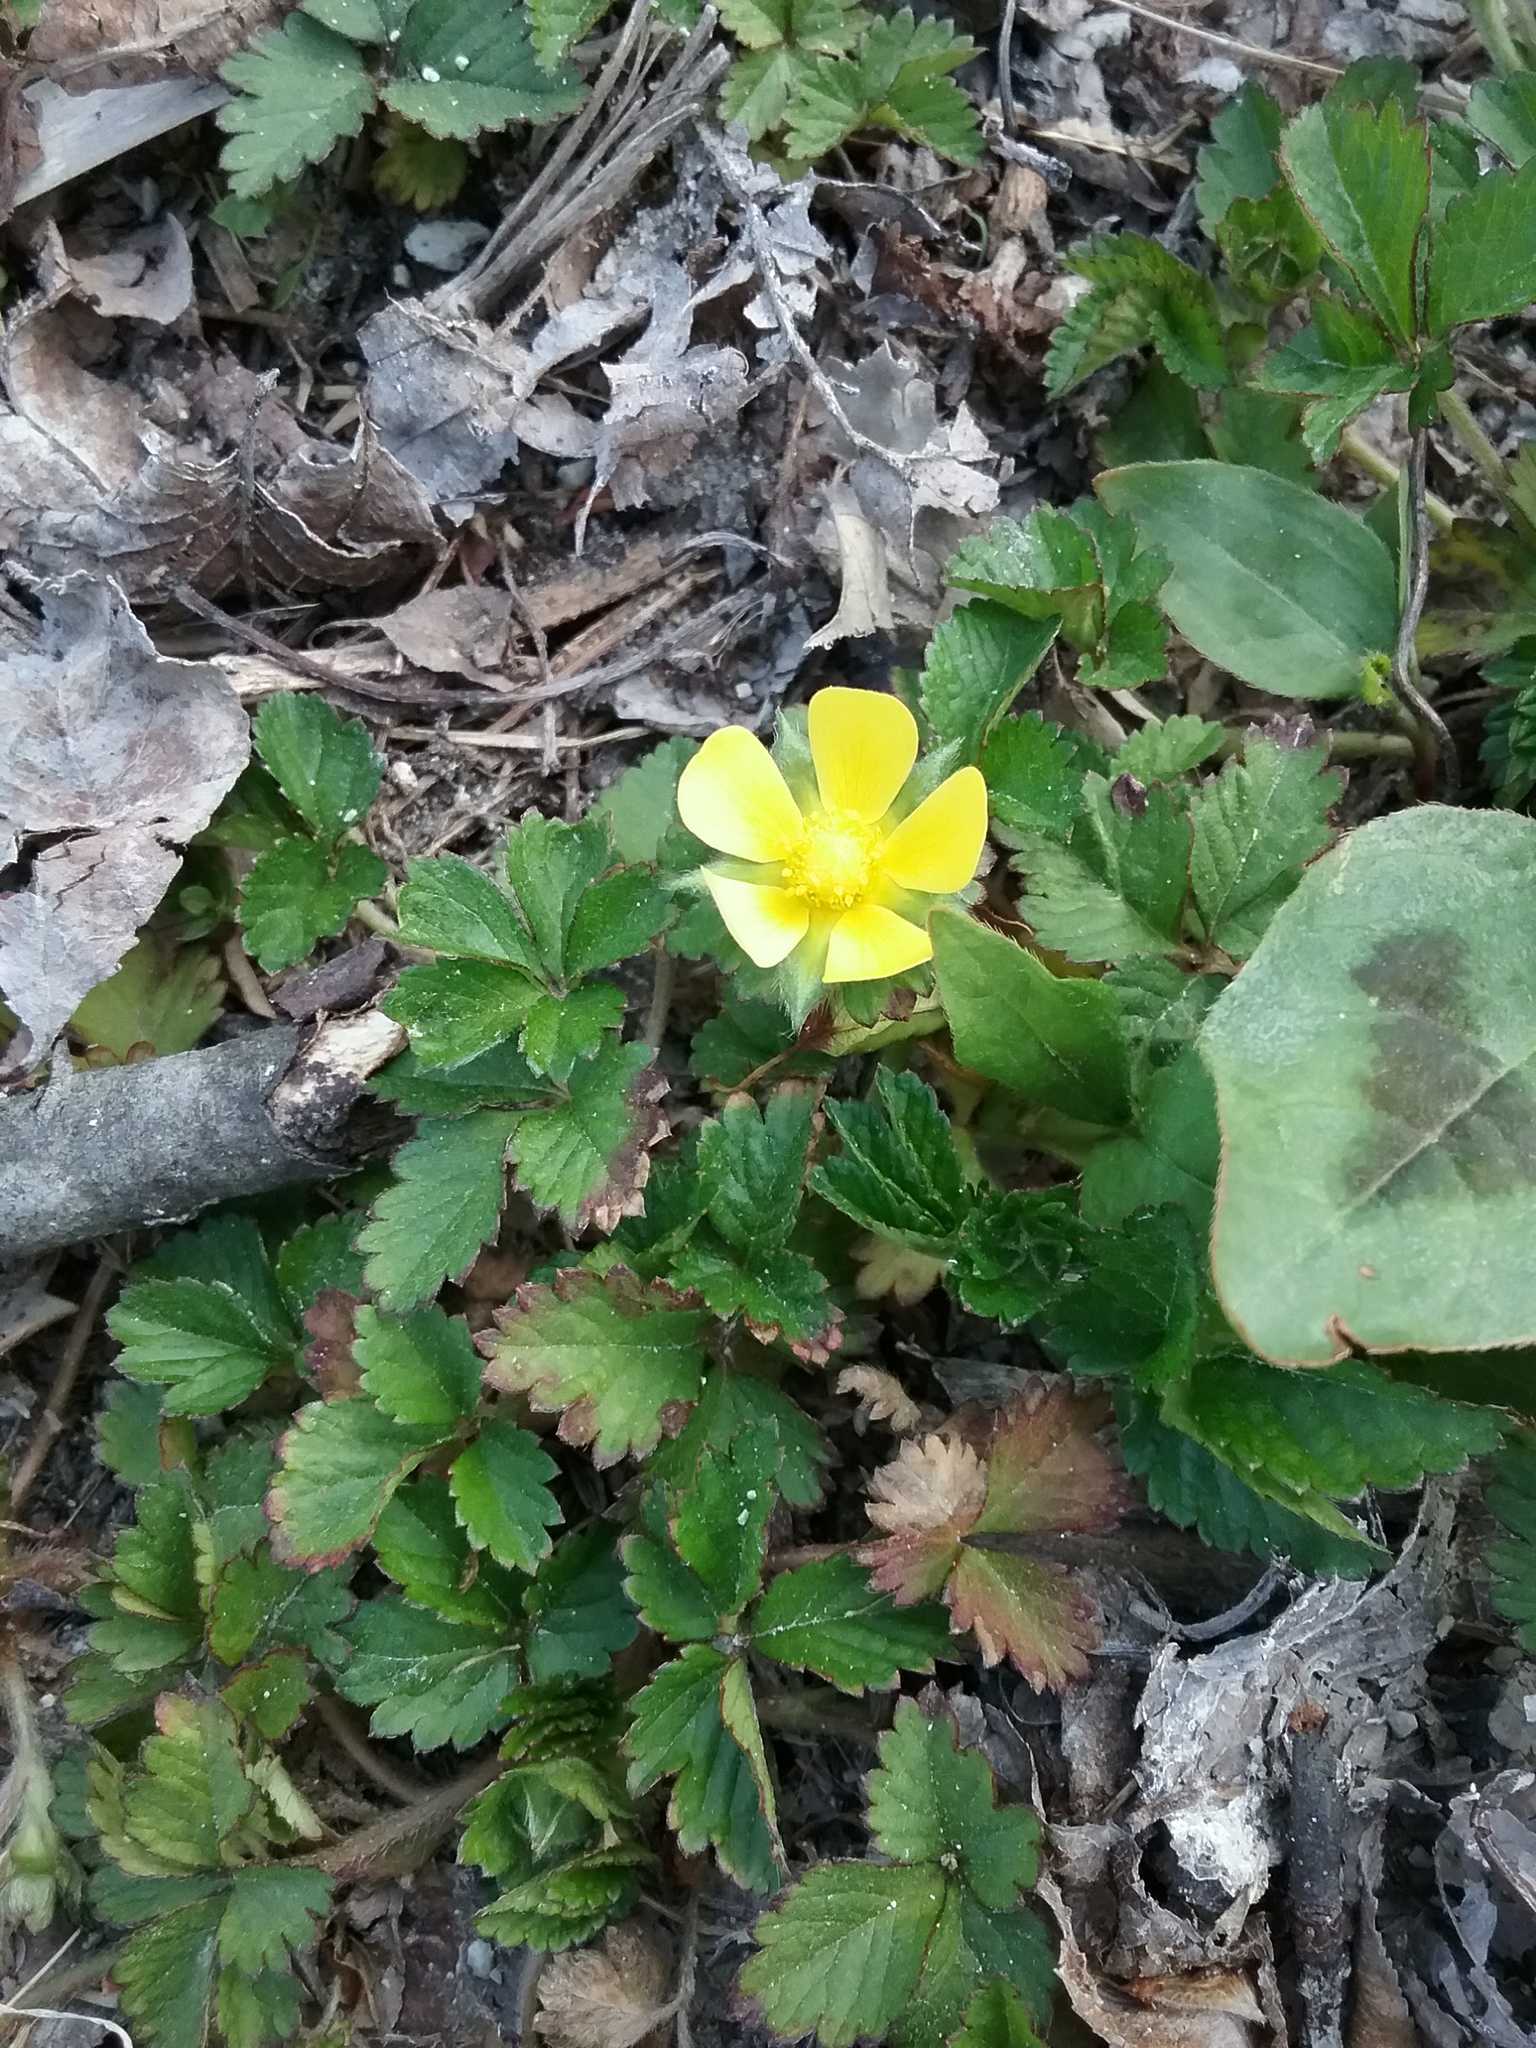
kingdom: Plantae
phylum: Tracheophyta
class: Magnoliopsida
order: Rosales
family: Rosaceae
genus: Potentilla
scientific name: Potentilla indica
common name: Yellow-flowered strawberry
